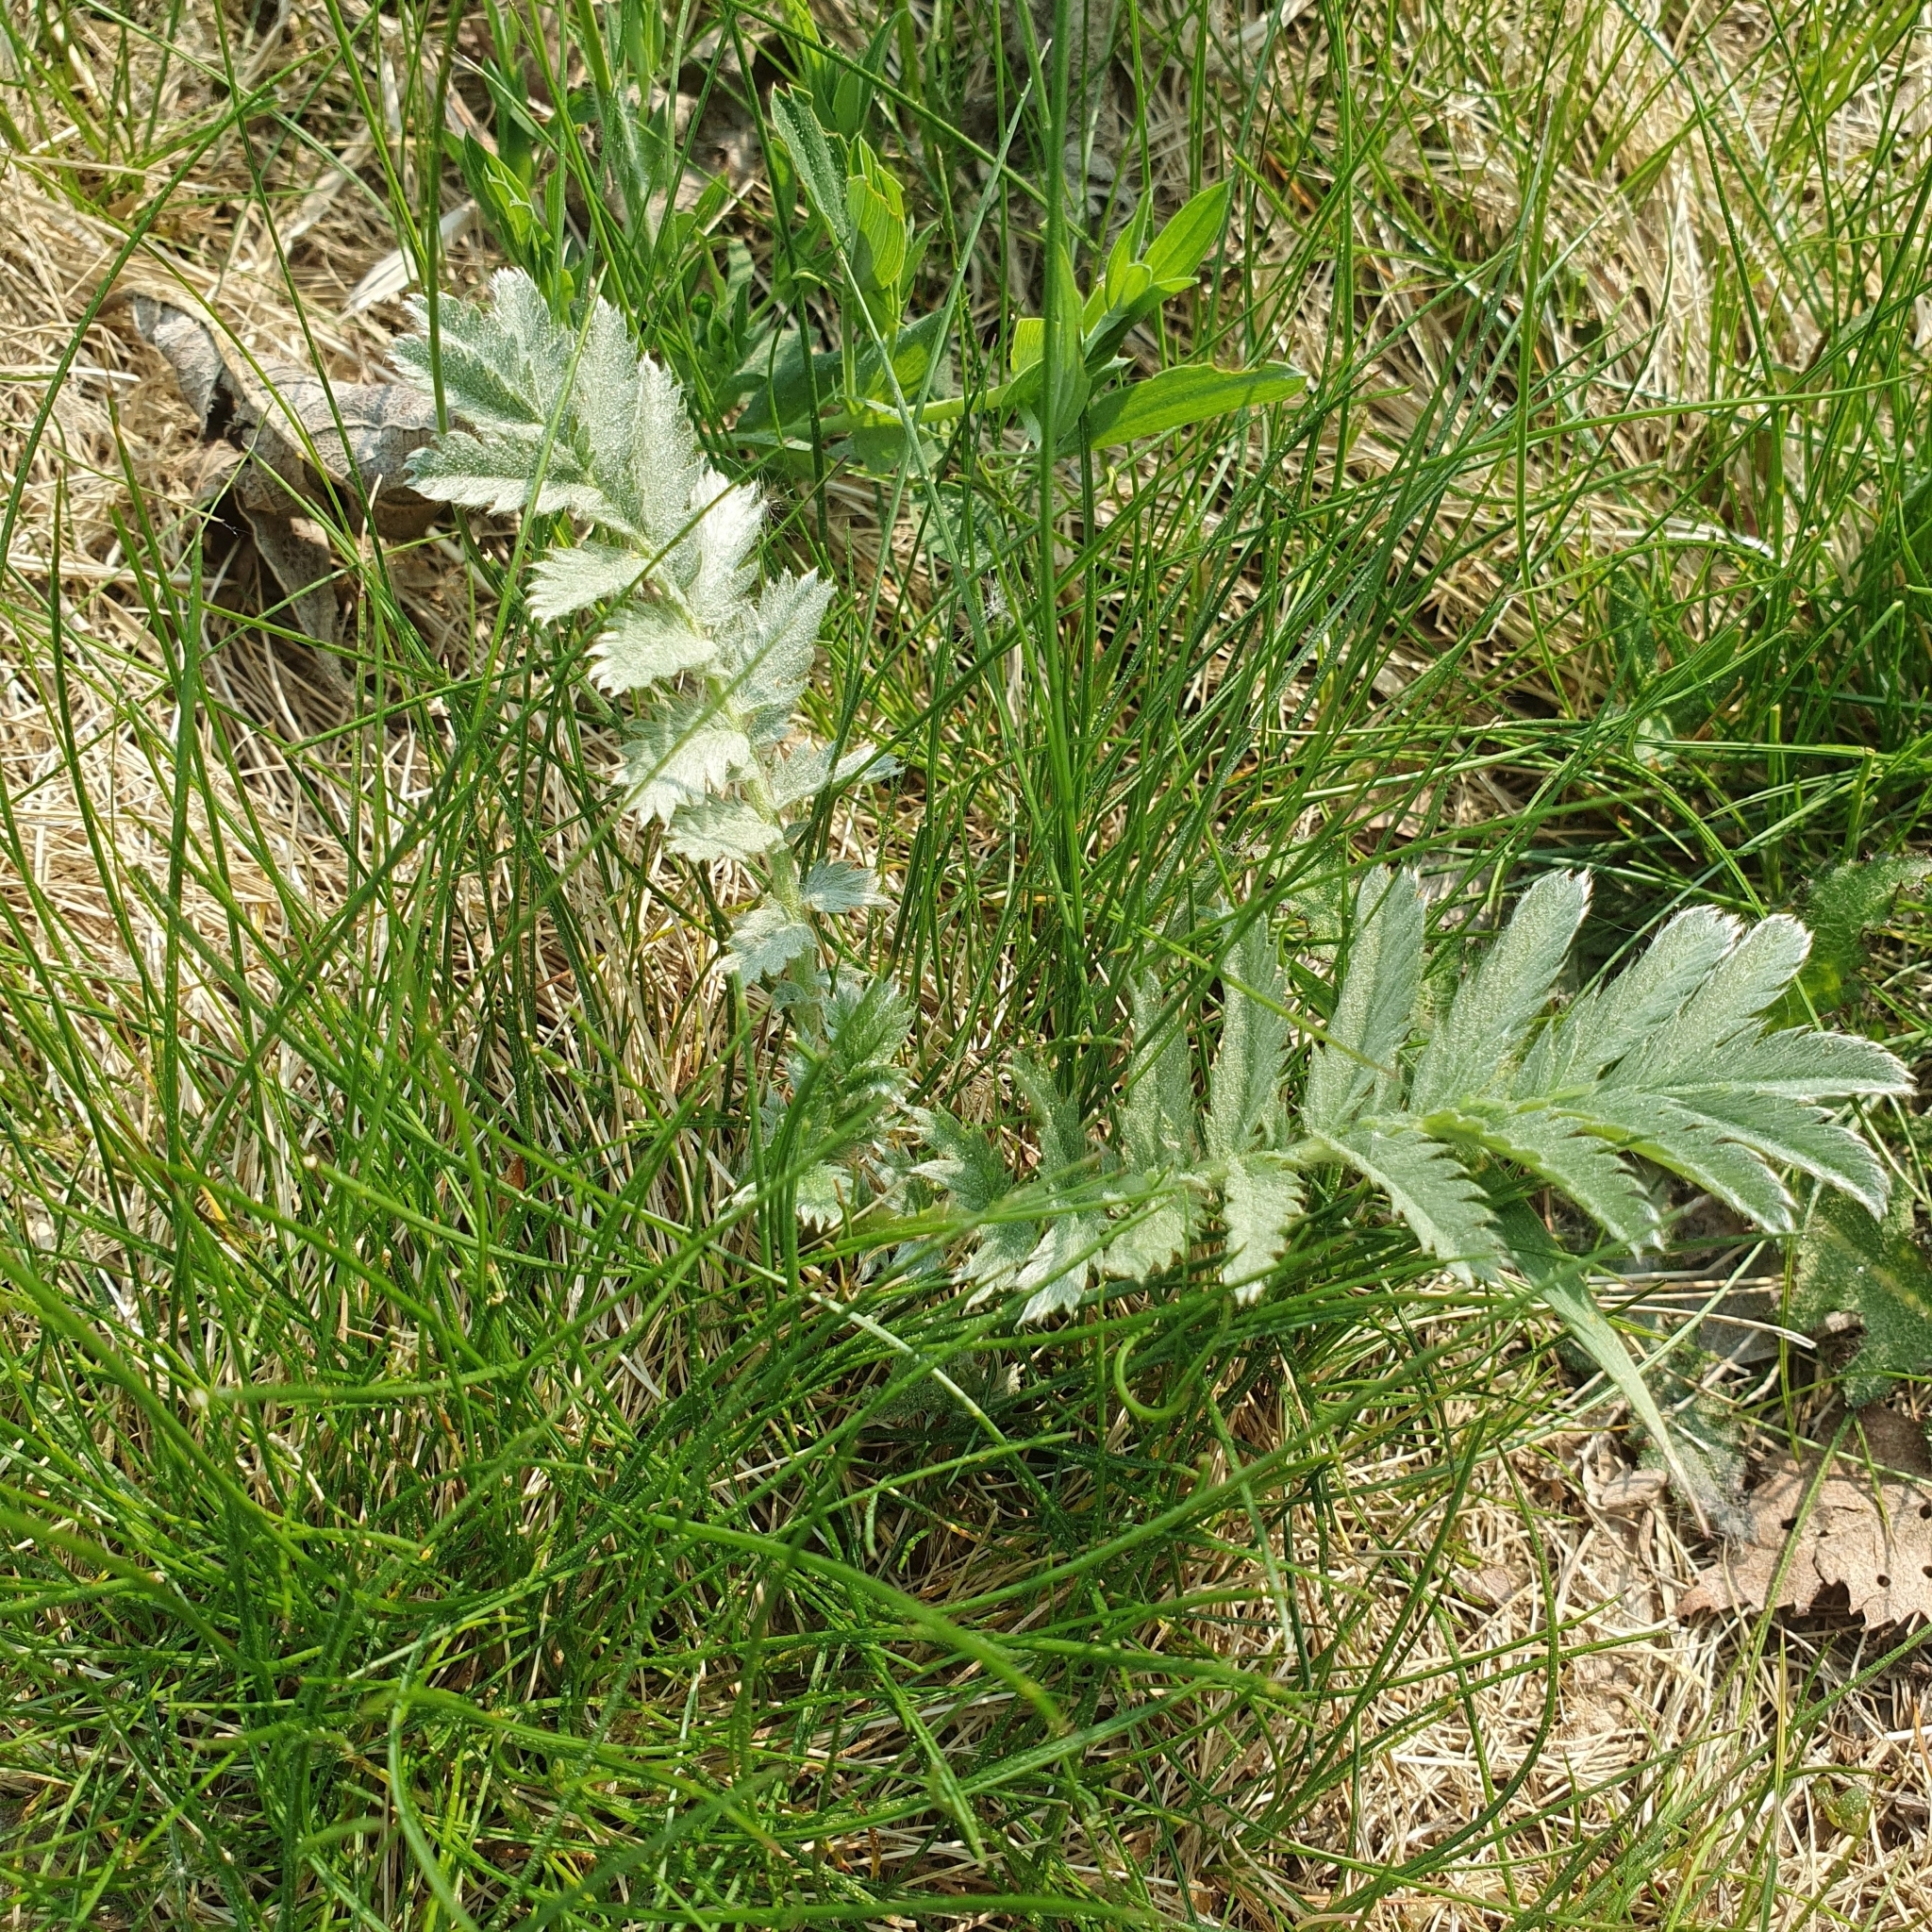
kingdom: Plantae
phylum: Tracheophyta
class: Magnoliopsida
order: Rosales
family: Rosaceae
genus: Argentina
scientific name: Argentina anserina
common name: Common silverweed
